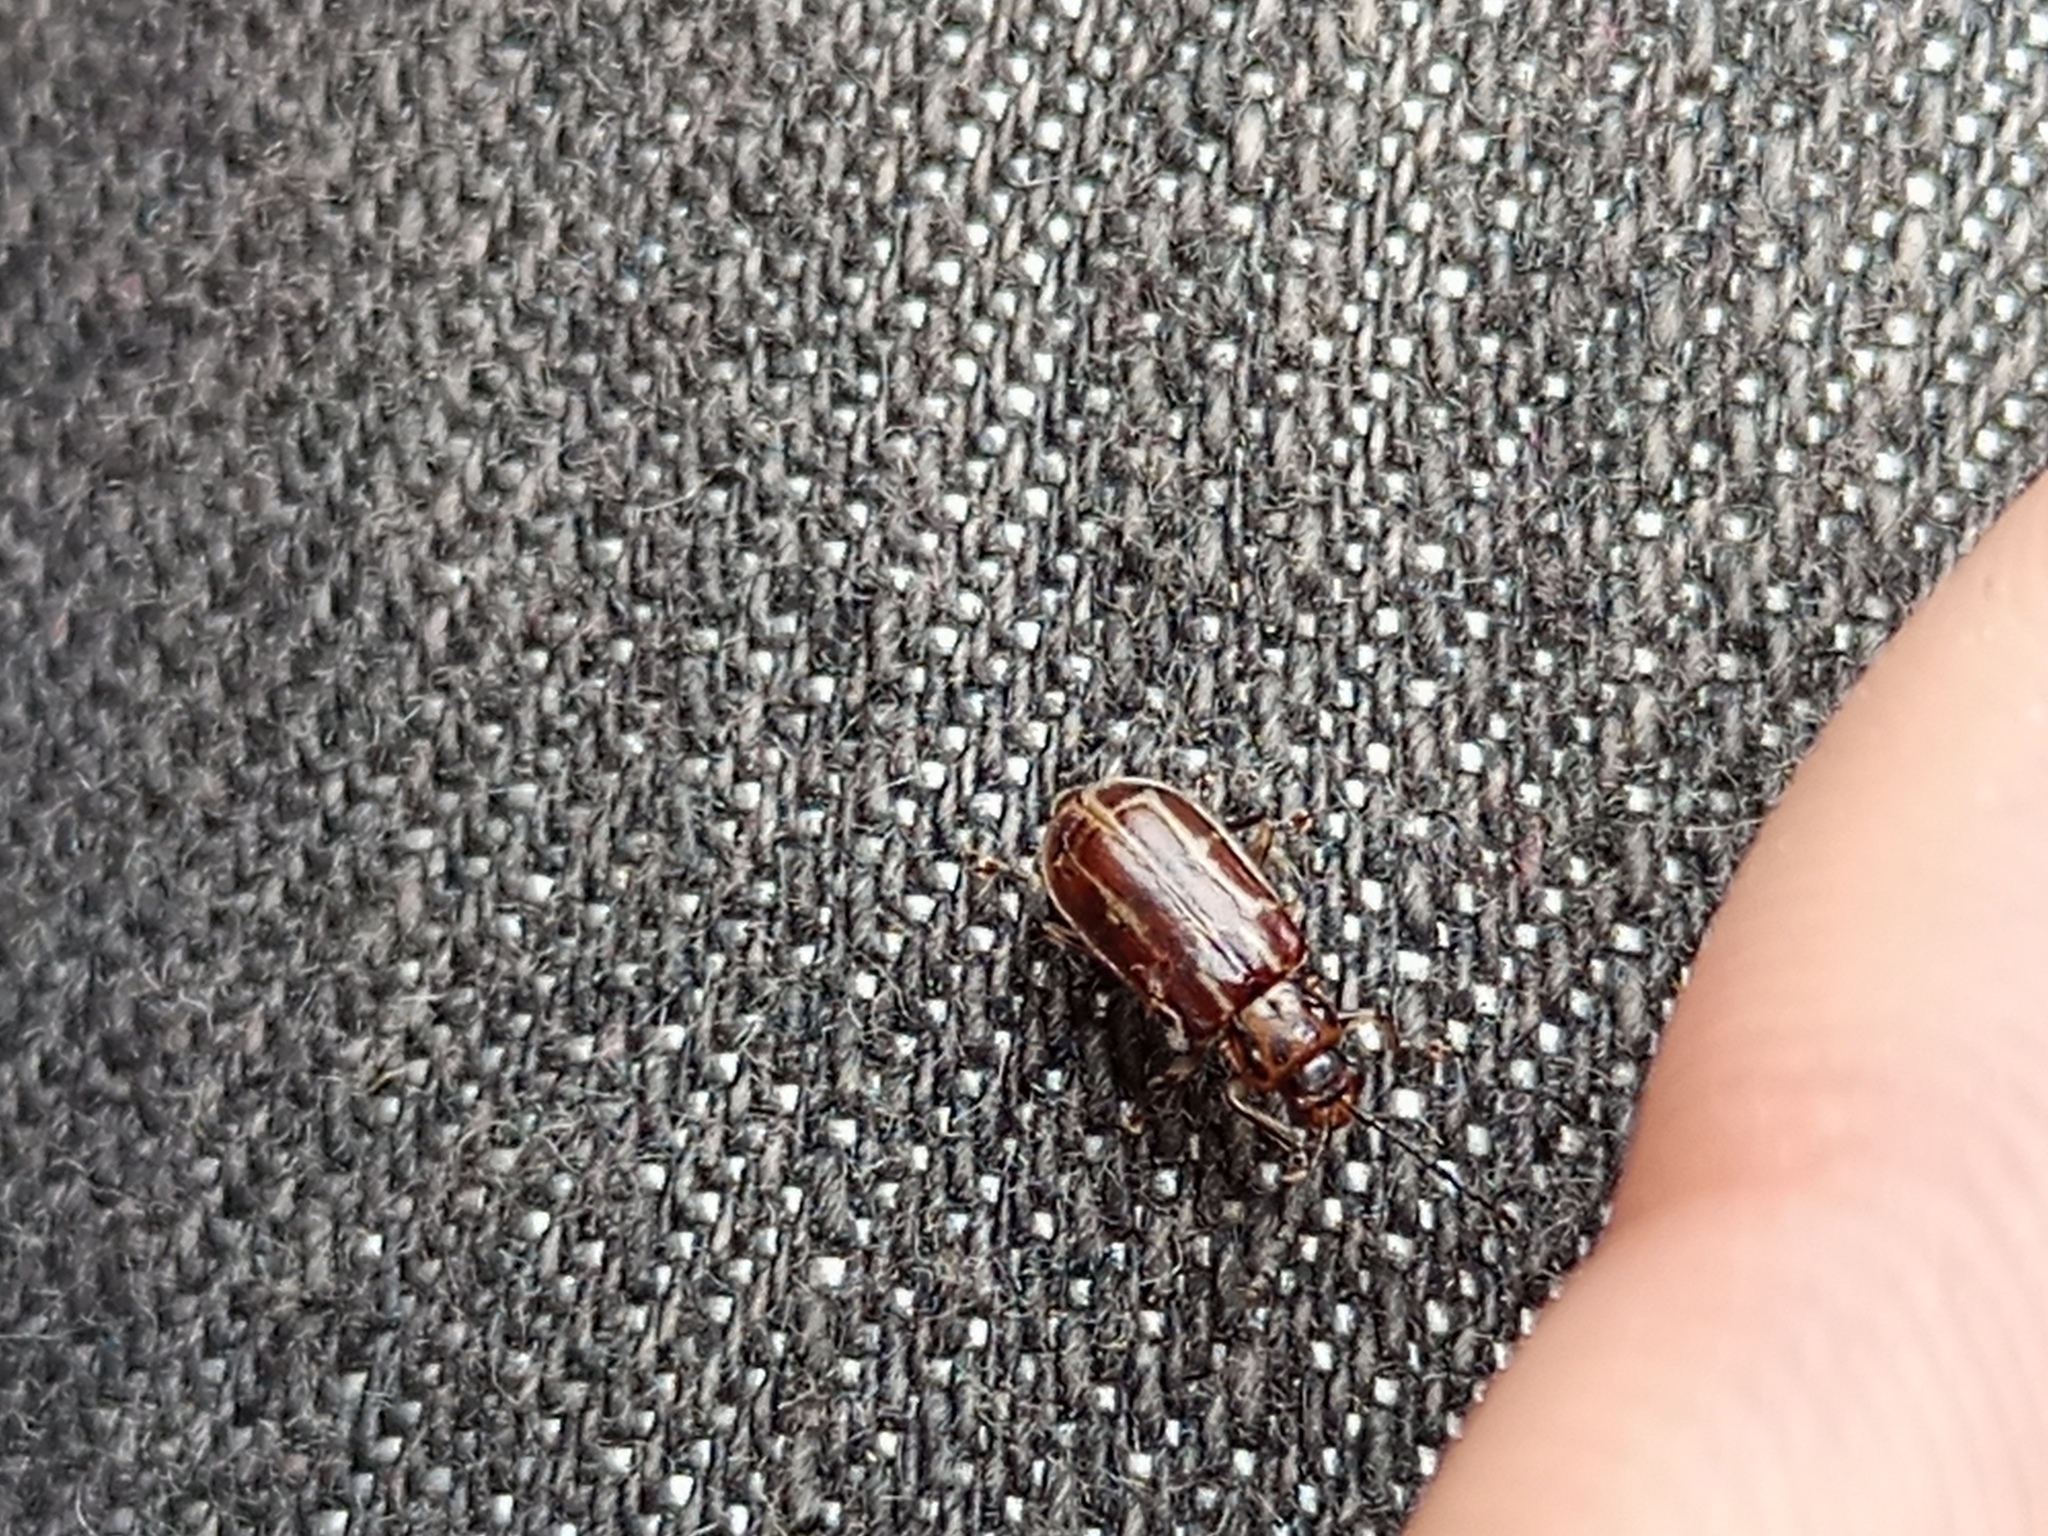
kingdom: Animalia
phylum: Arthropoda
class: Insecta
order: Coleoptera
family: Chrysomelidae
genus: Anisobrotica
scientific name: Anisobrotica
